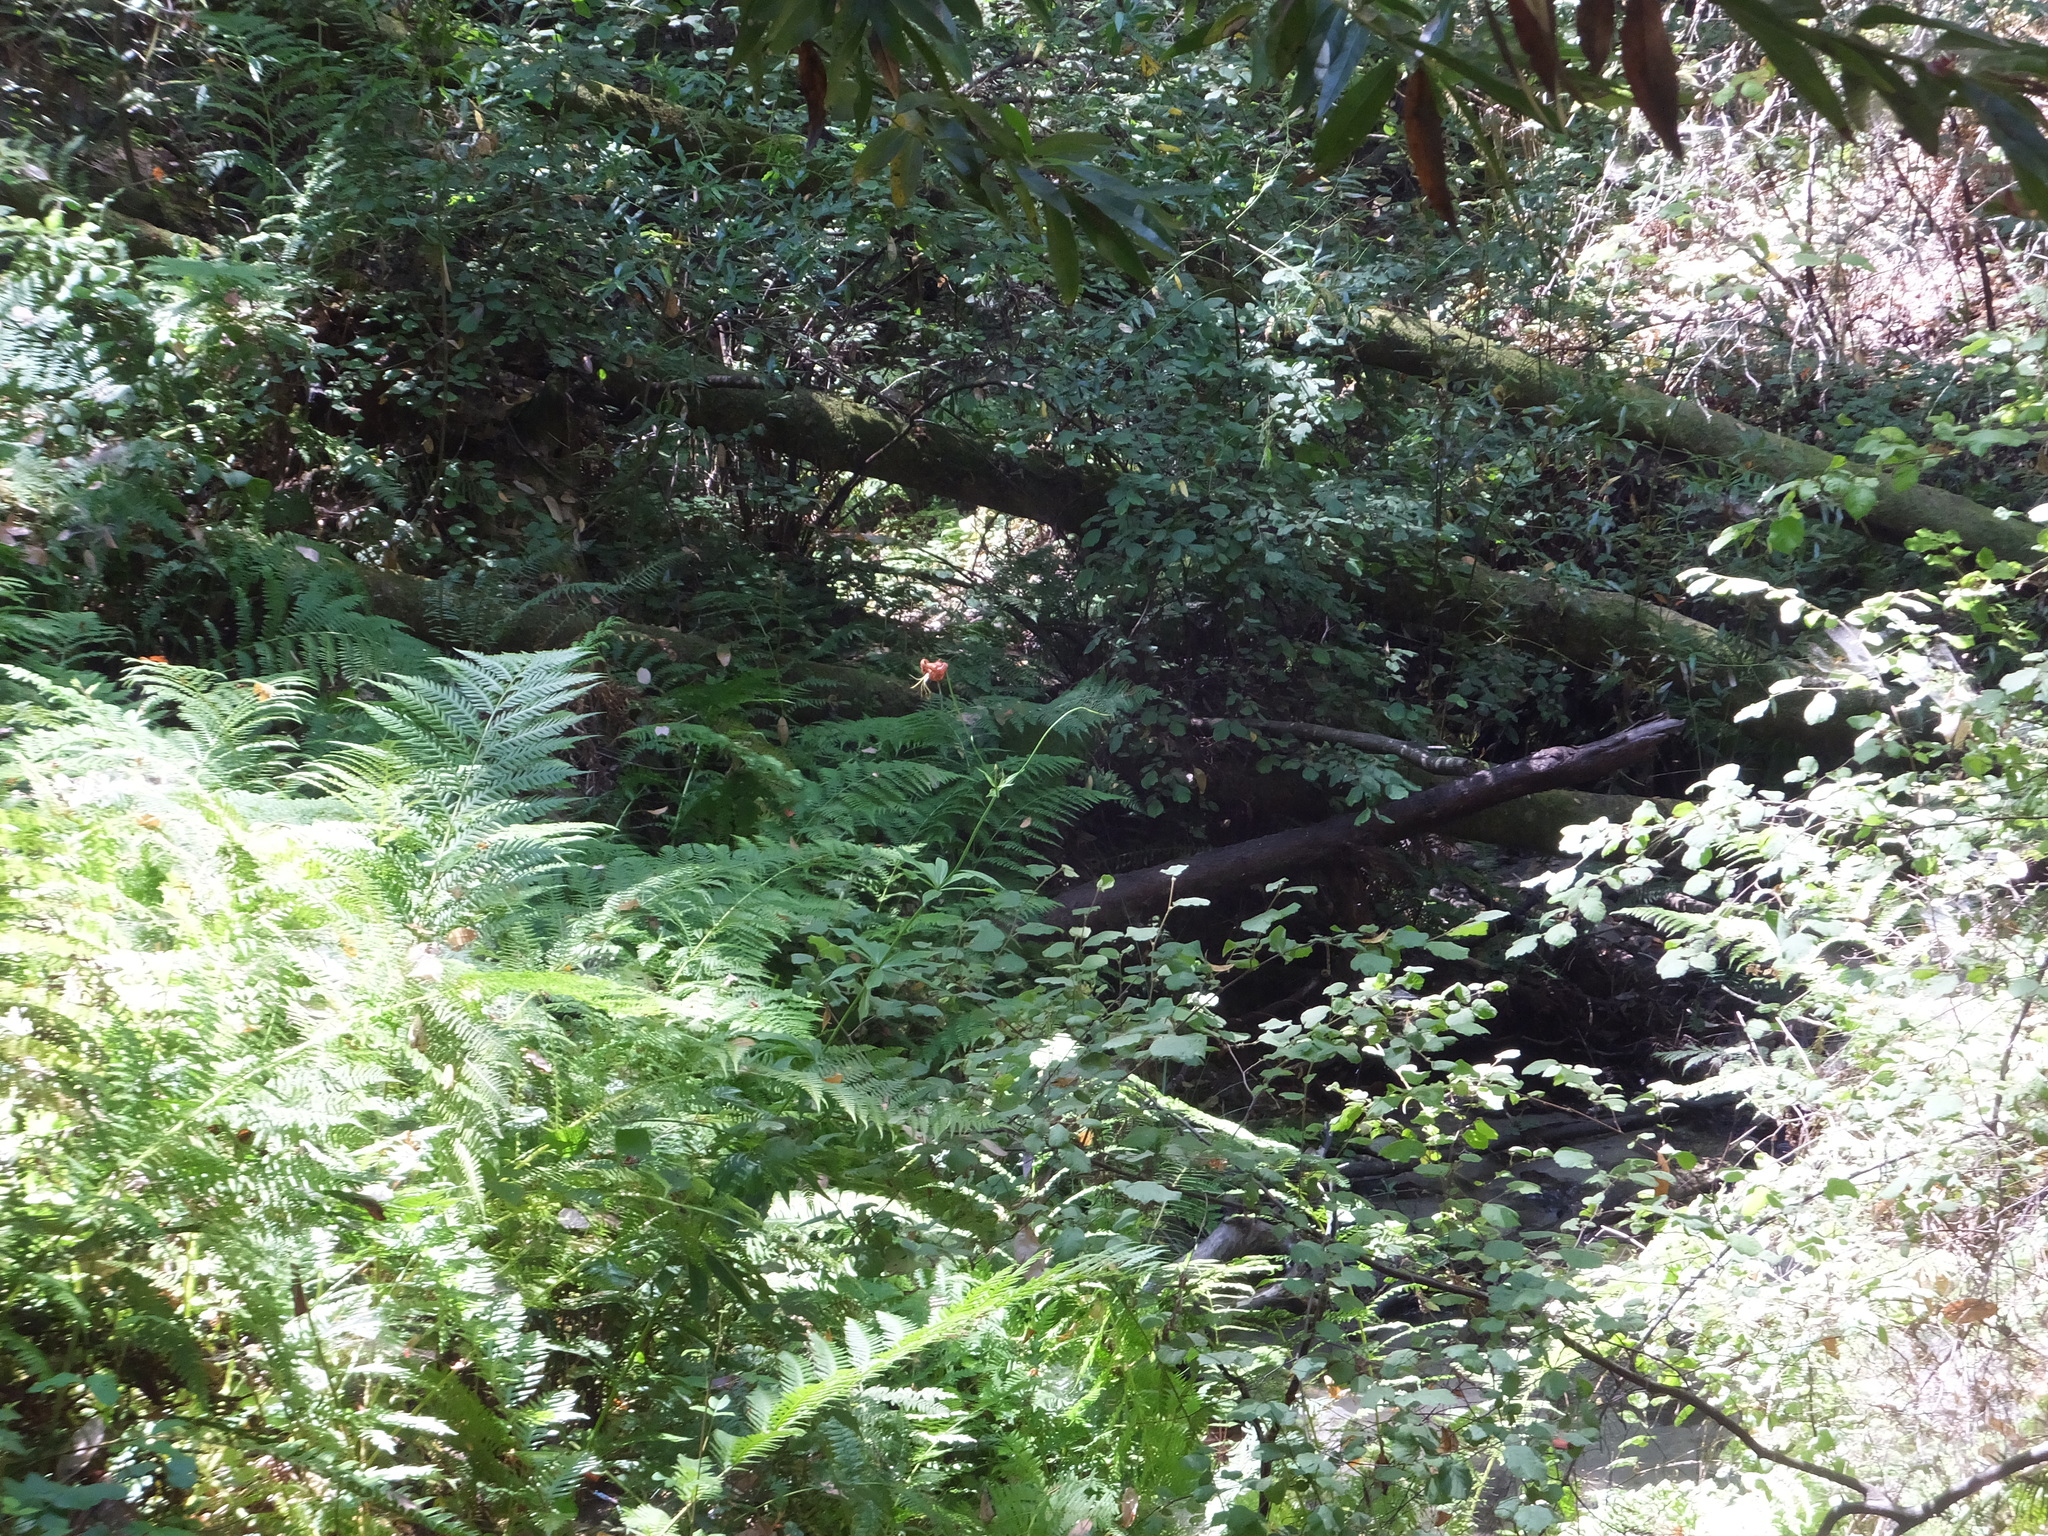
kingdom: Plantae
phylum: Tracheophyta
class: Liliopsida
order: Liliales
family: Liliaceae
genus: Lilium
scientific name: Lilium pardalinum
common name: Panther lily
